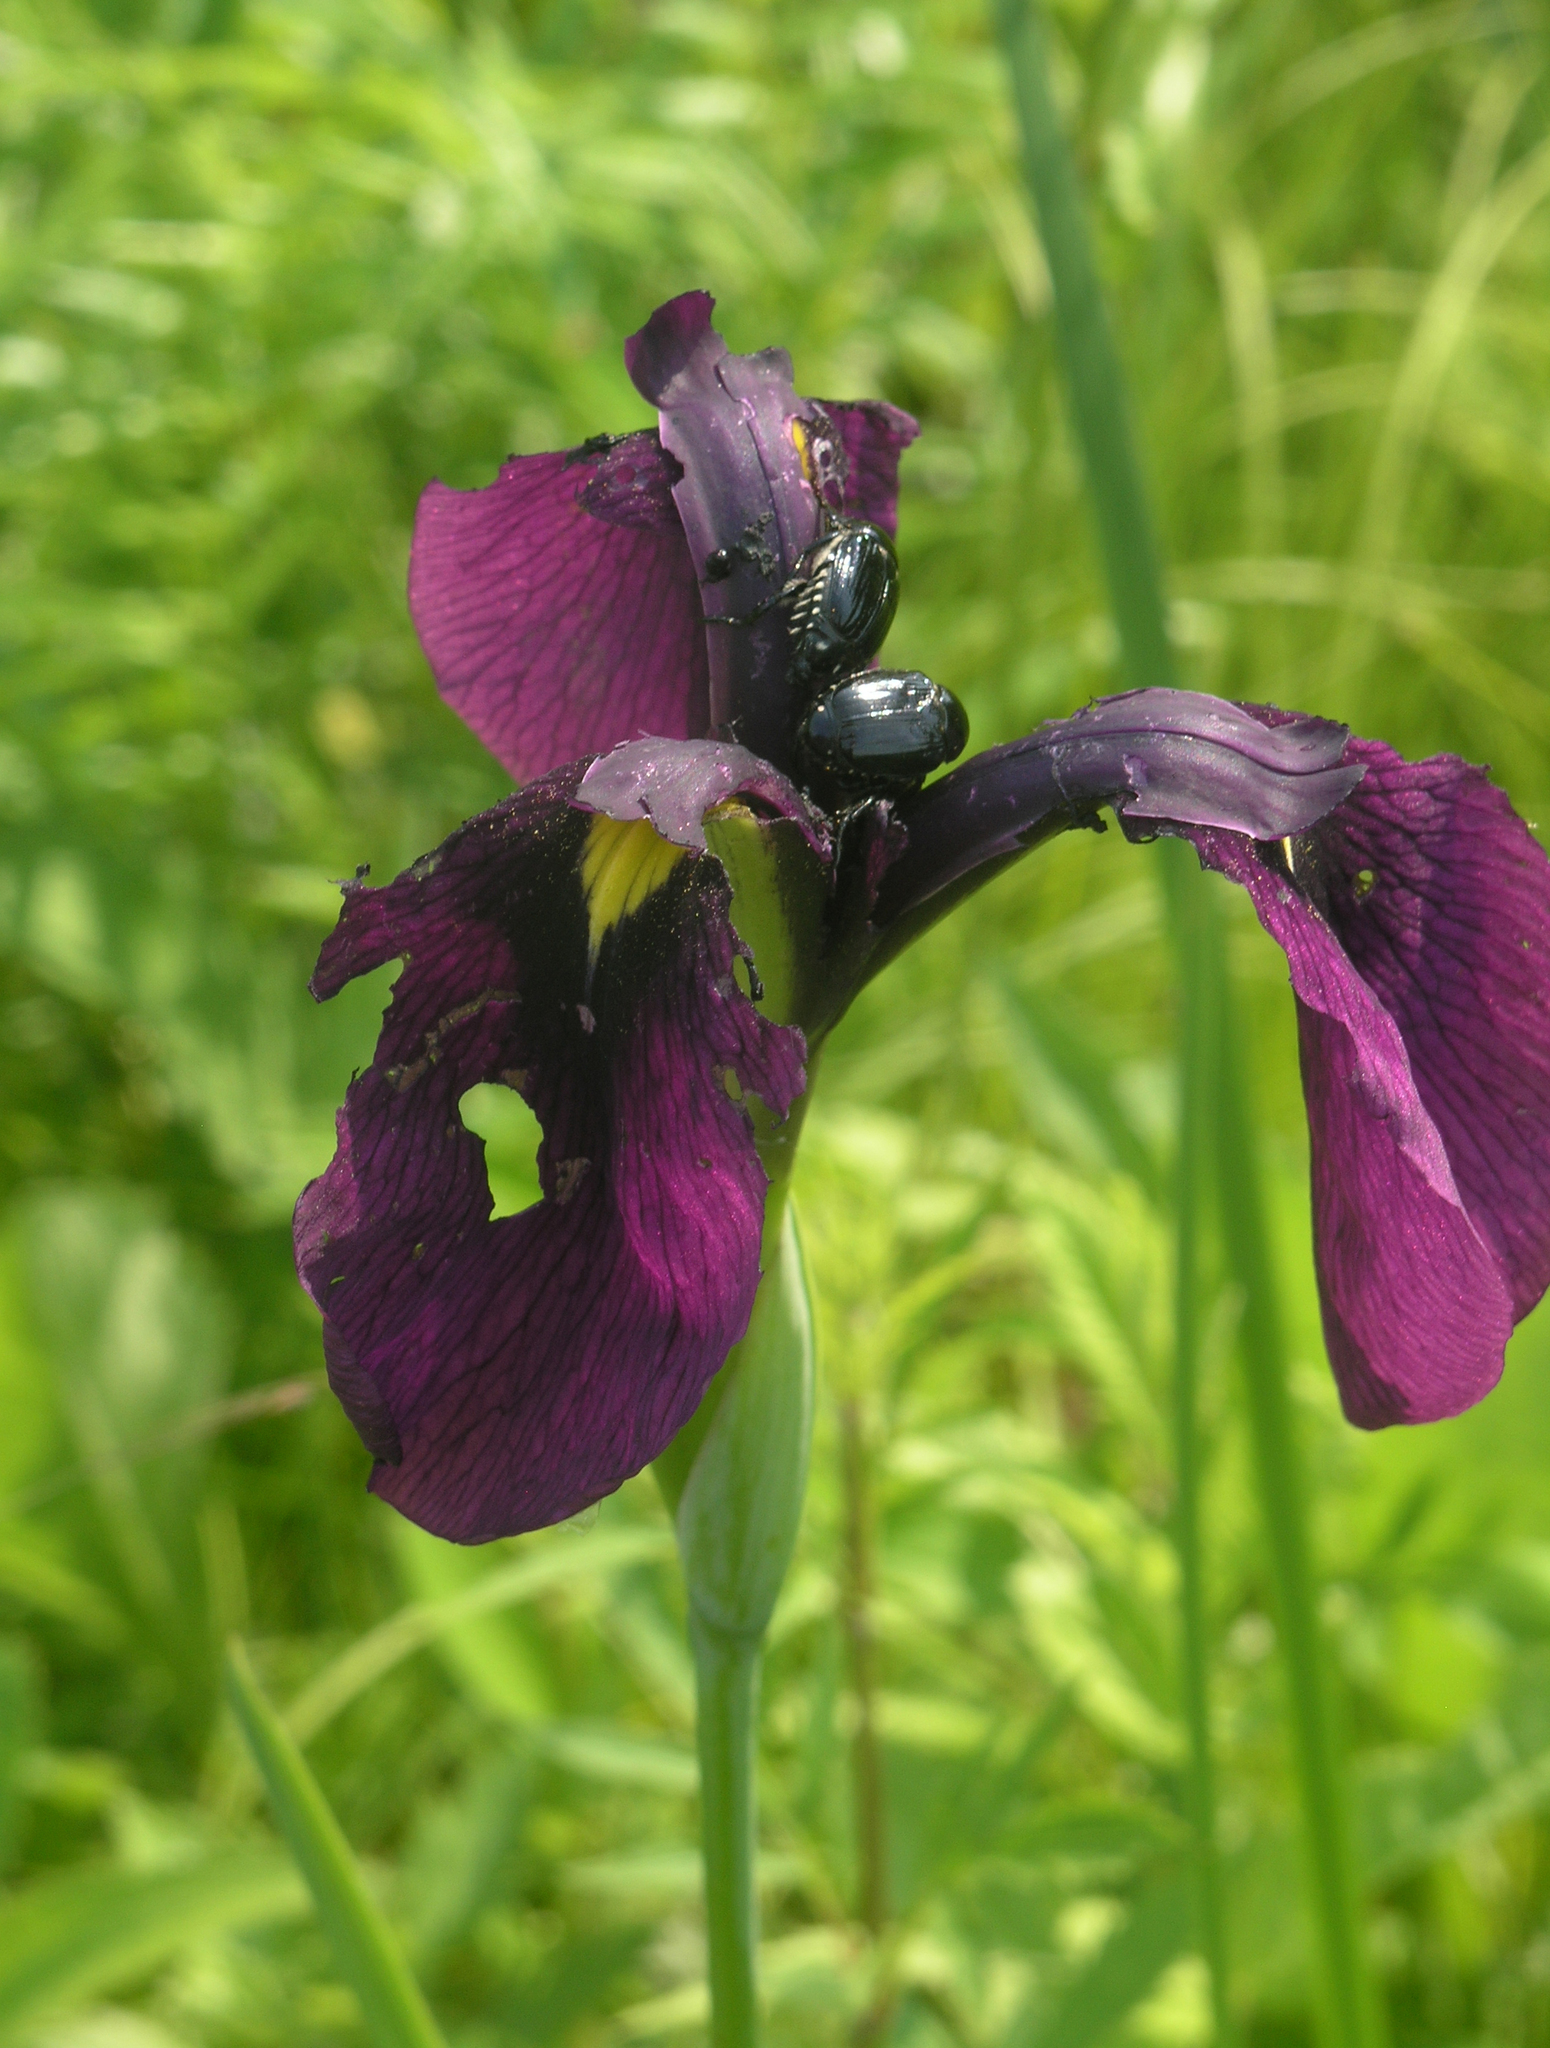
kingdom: Plantae
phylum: Tracheophyta
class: Liliopsida
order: Asparagales
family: Iridaceae
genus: Iris
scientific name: Iris ensata
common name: Beaked iris
